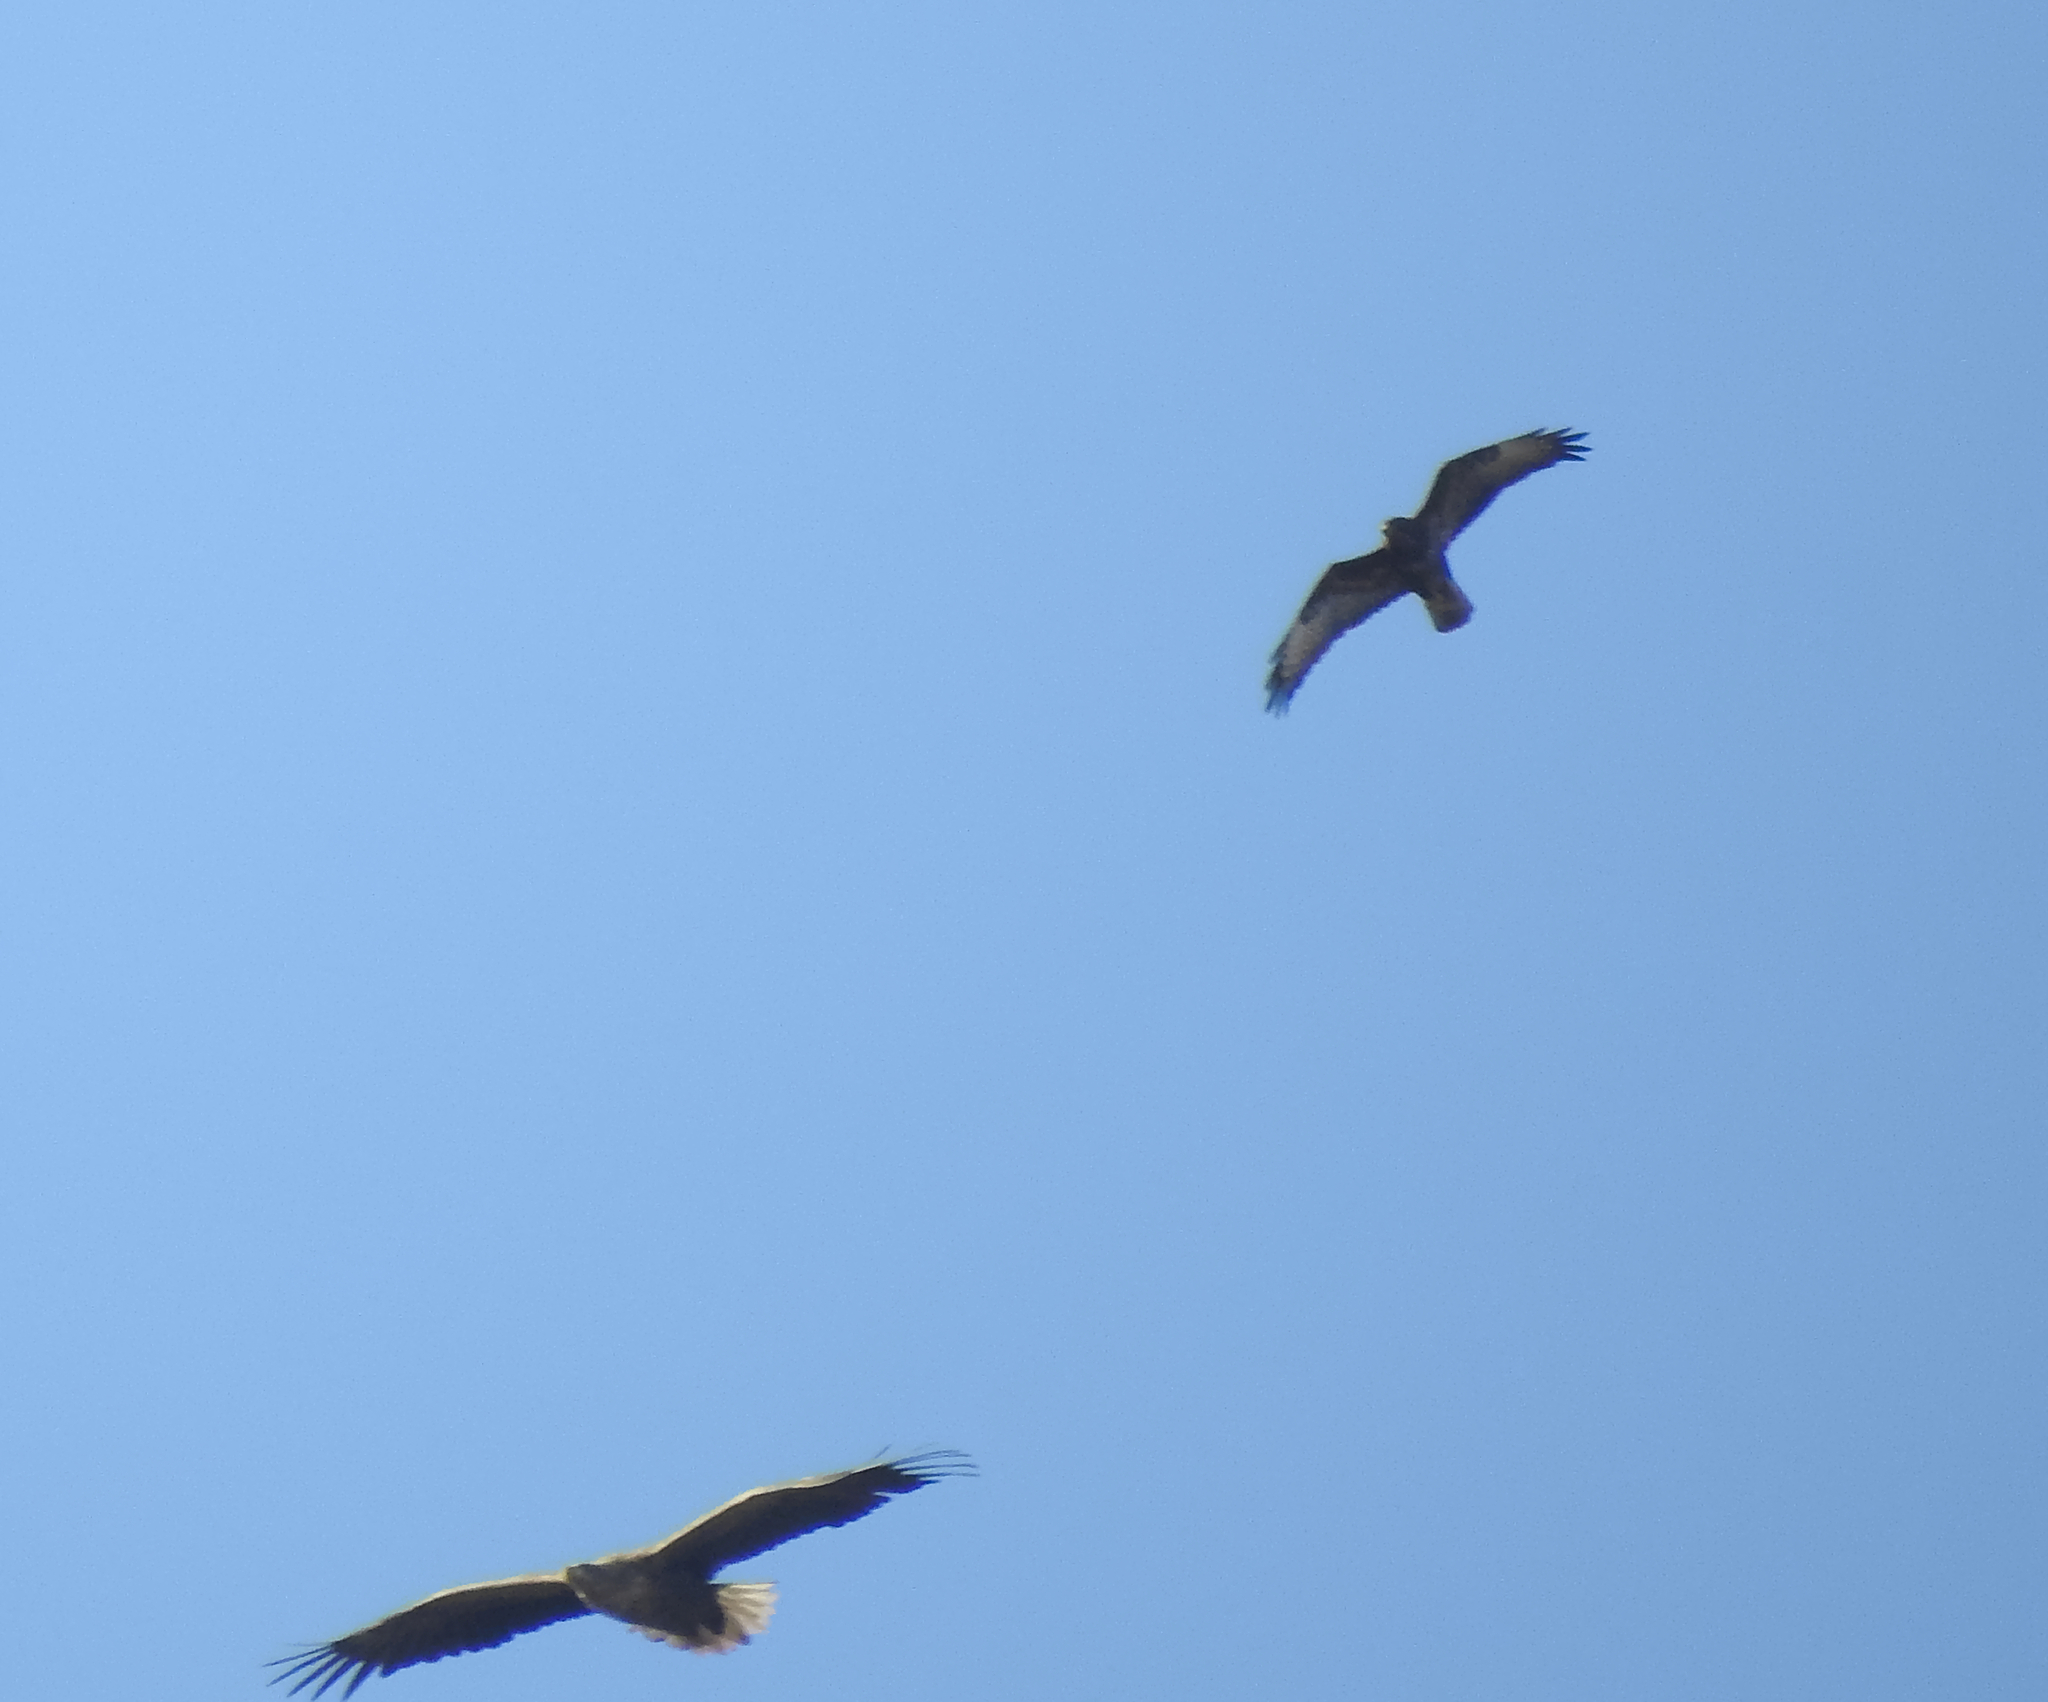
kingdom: Animalia
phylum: Chordata
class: Aves
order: Accipitriformes
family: Accipitridae
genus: Haliaeetus
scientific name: Haliaeetus albicilla
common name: White-tailed eagle
